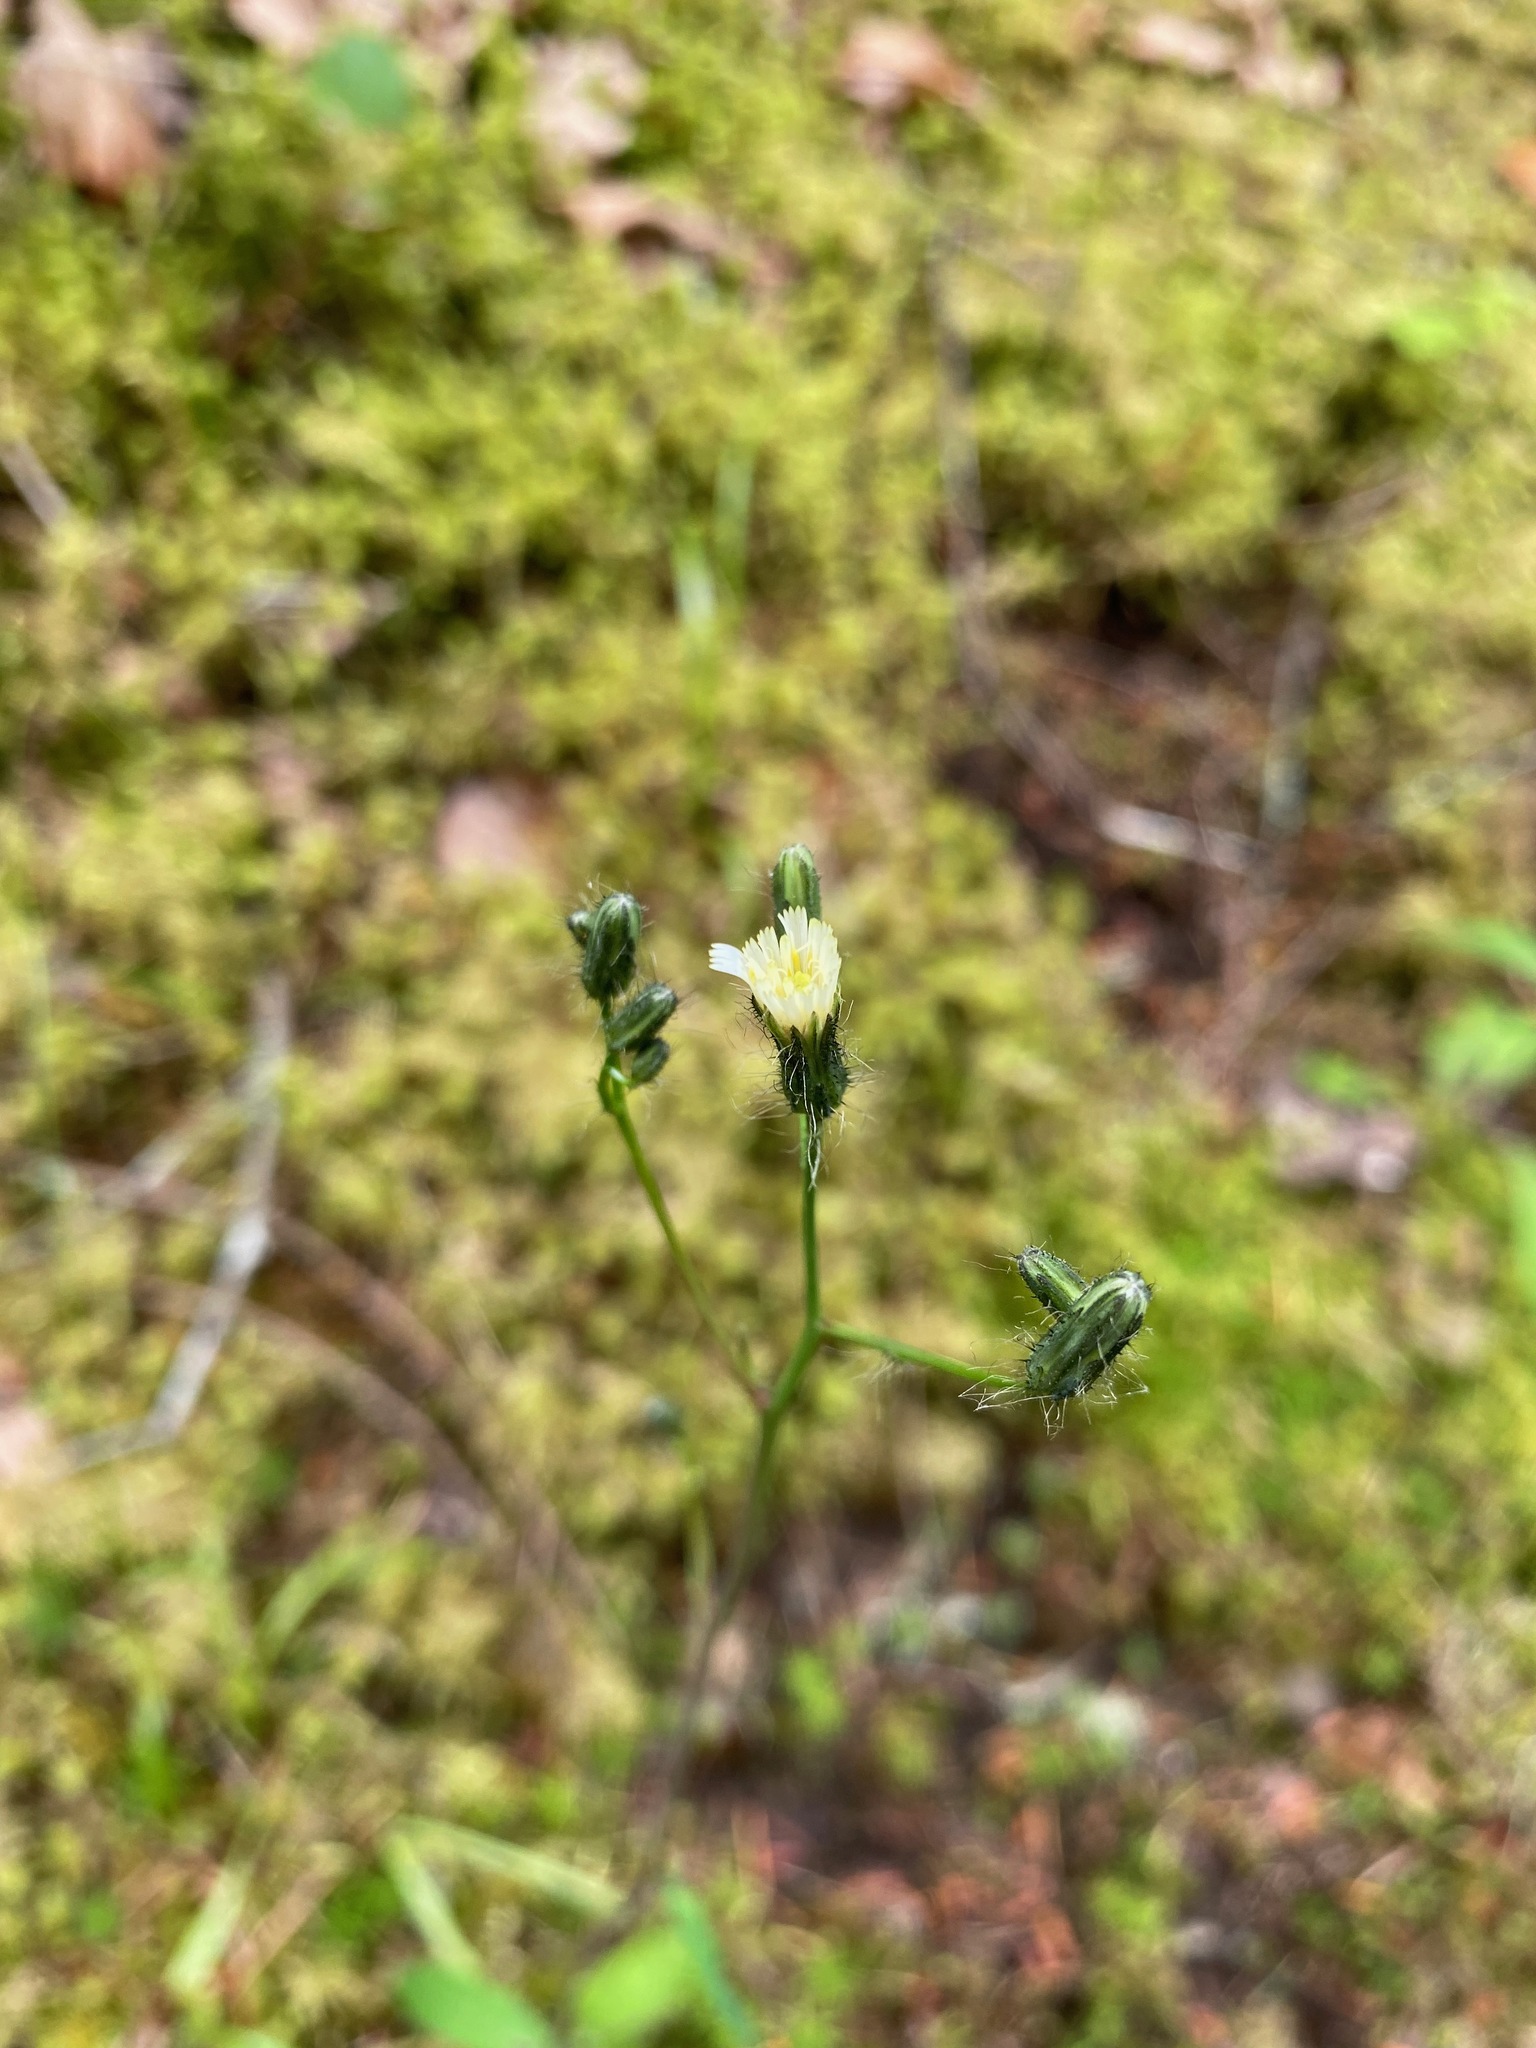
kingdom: Plantae
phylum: Tracheophyta
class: Magnoliopsida
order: Asterales
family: Asteraceae
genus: Hieracium
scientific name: Hieracium albiflorum
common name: White hawkweed
